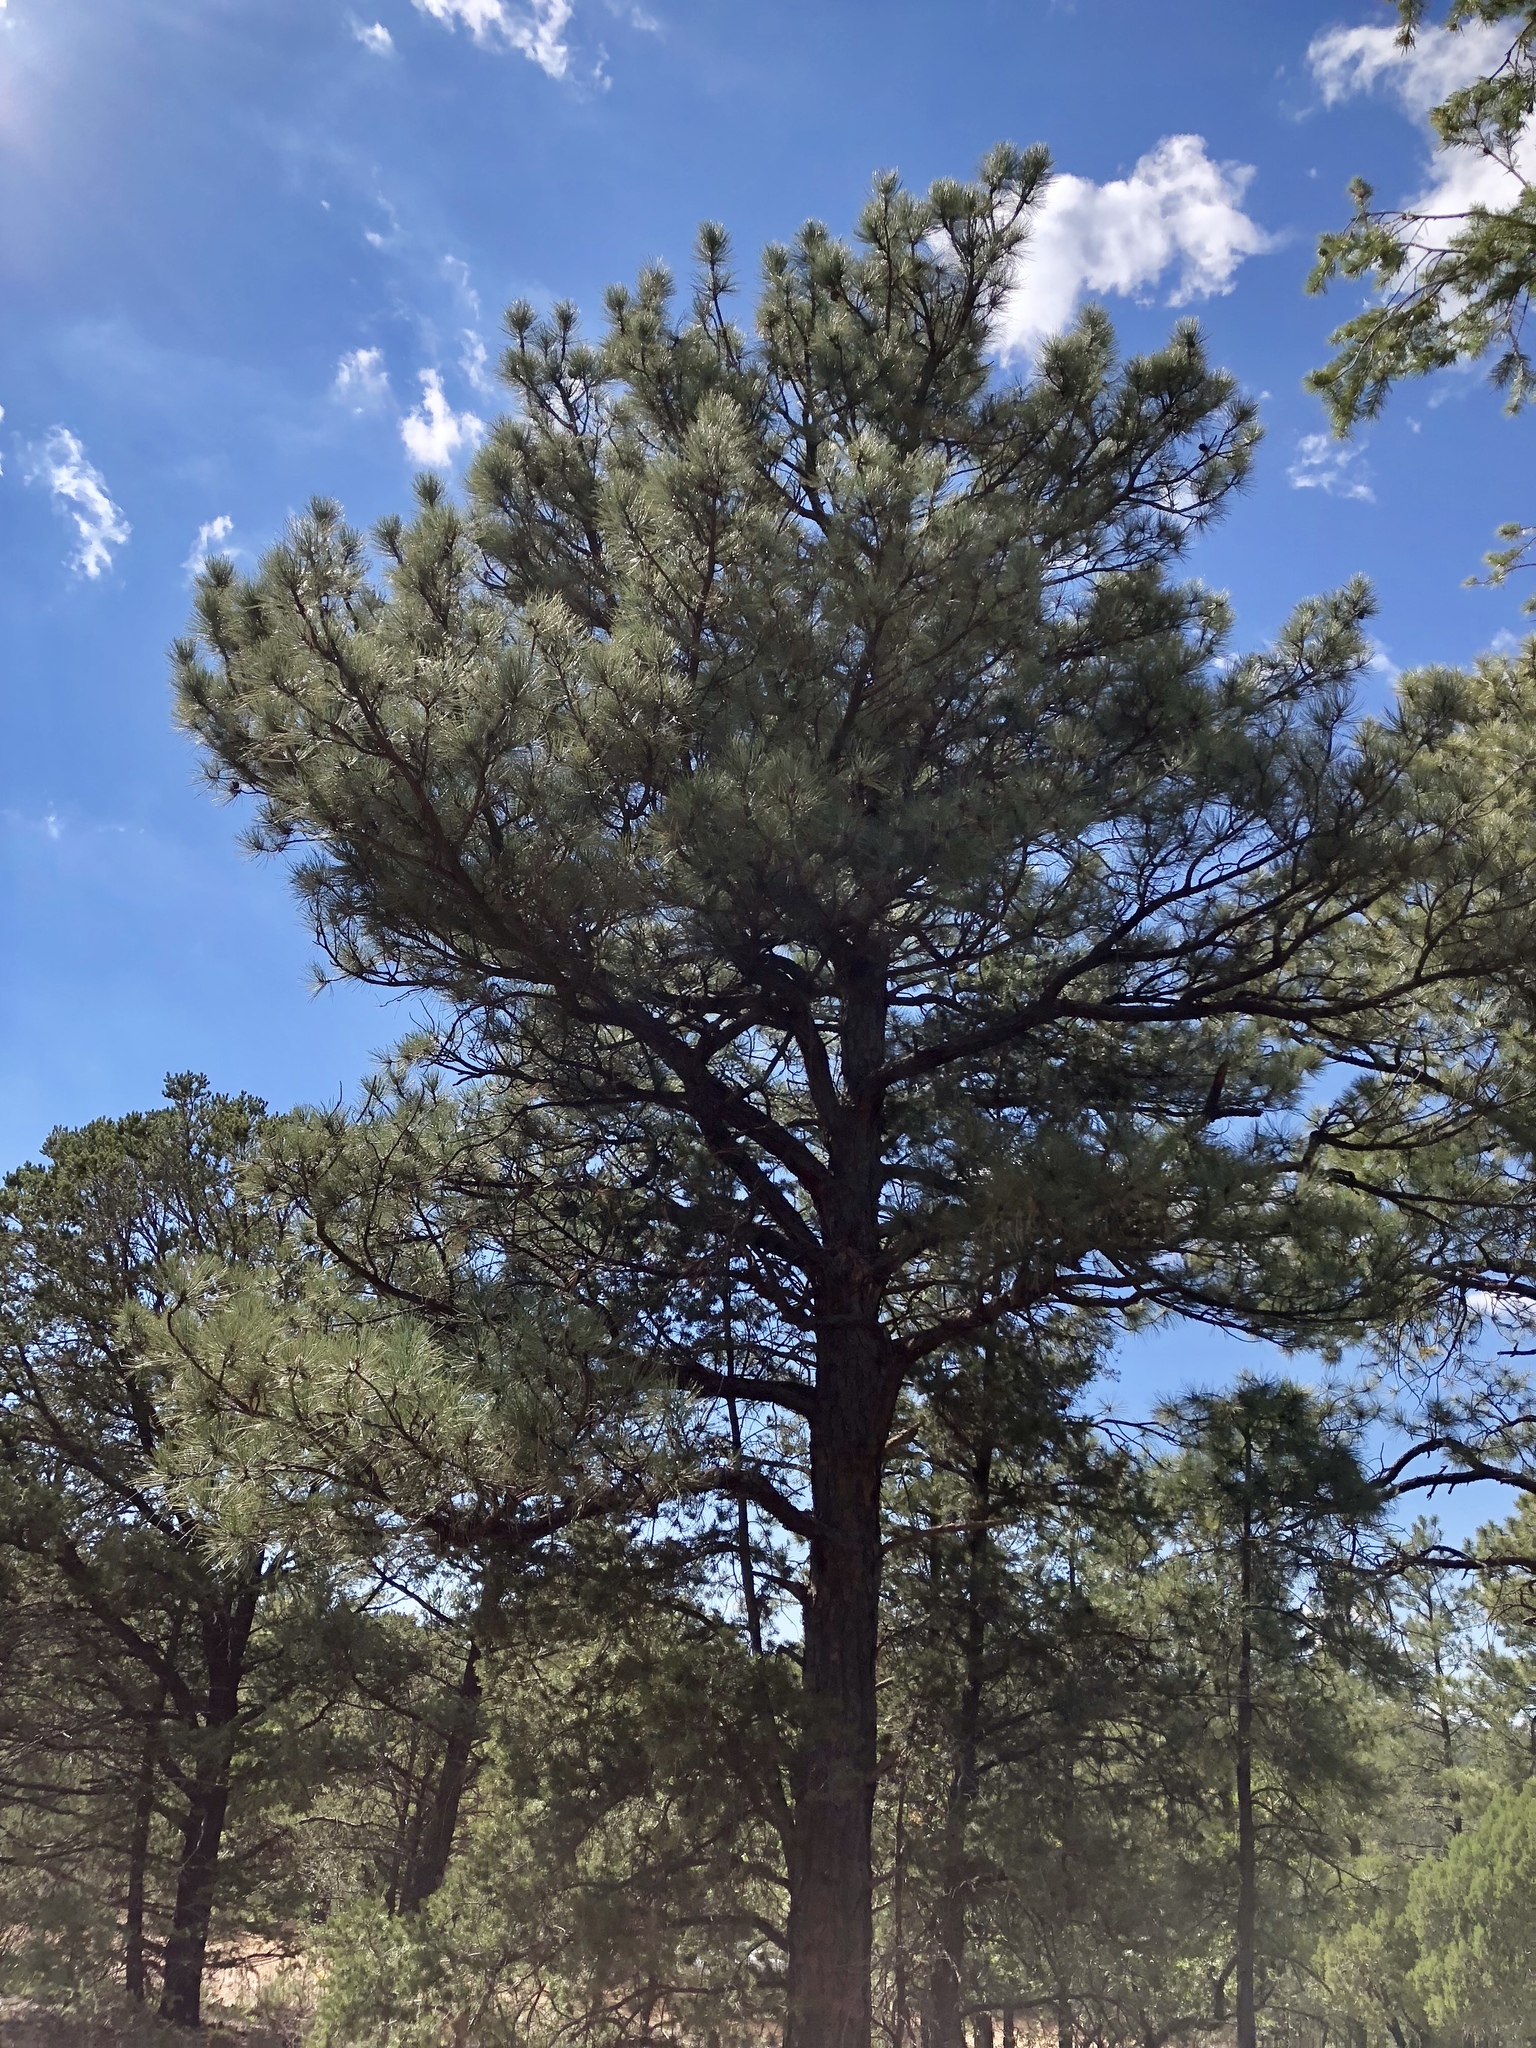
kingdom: Plantae
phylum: Tracheophyta
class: Pinopsida
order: Pinales
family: Pinaceae
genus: Pinus
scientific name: Pinus ponderosa
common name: Western yellow-pine
